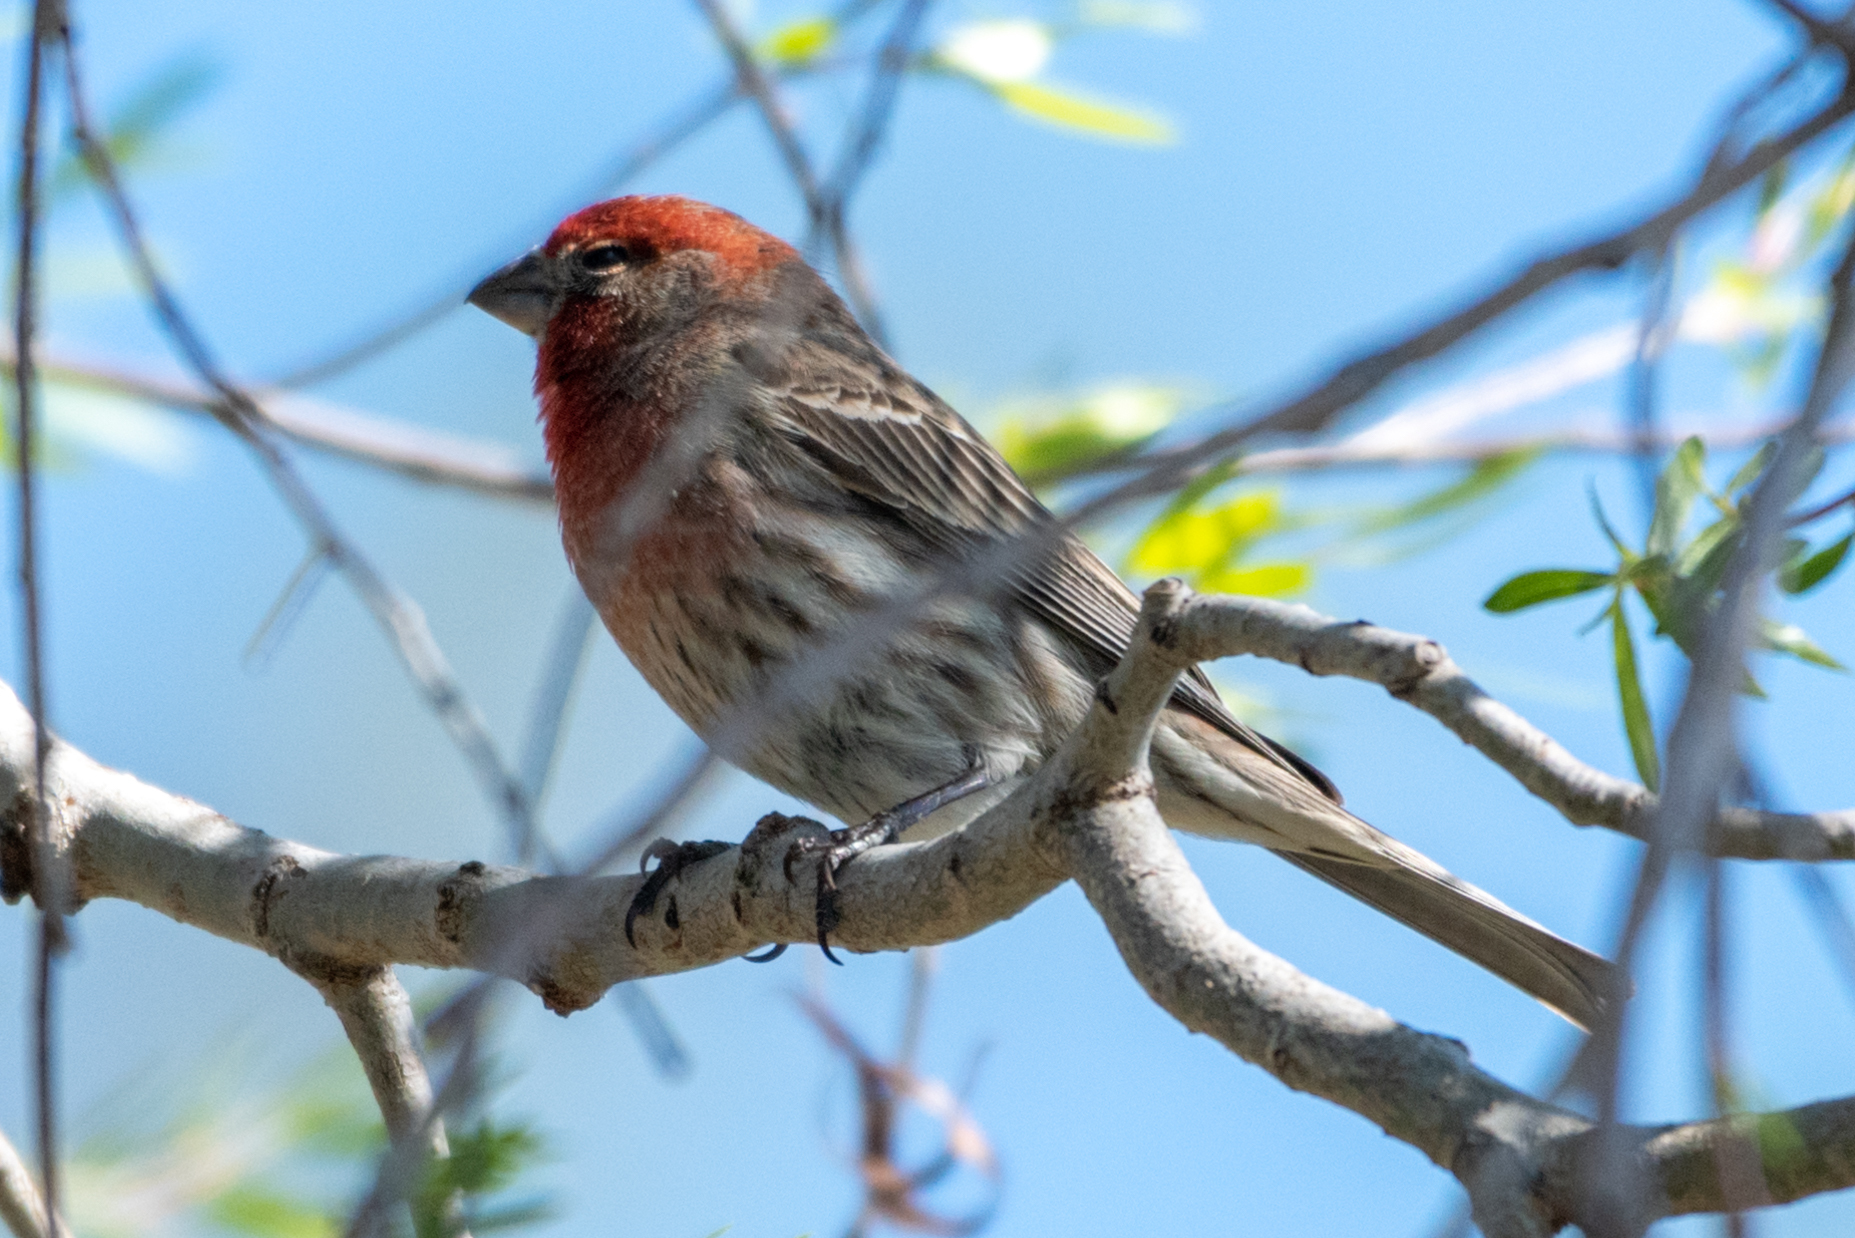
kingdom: Animalia
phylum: Chordata
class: Aves
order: Passeriformes
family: Fringillidae
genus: Haemorhous
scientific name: Haemorhous mexicanus
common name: House finch
